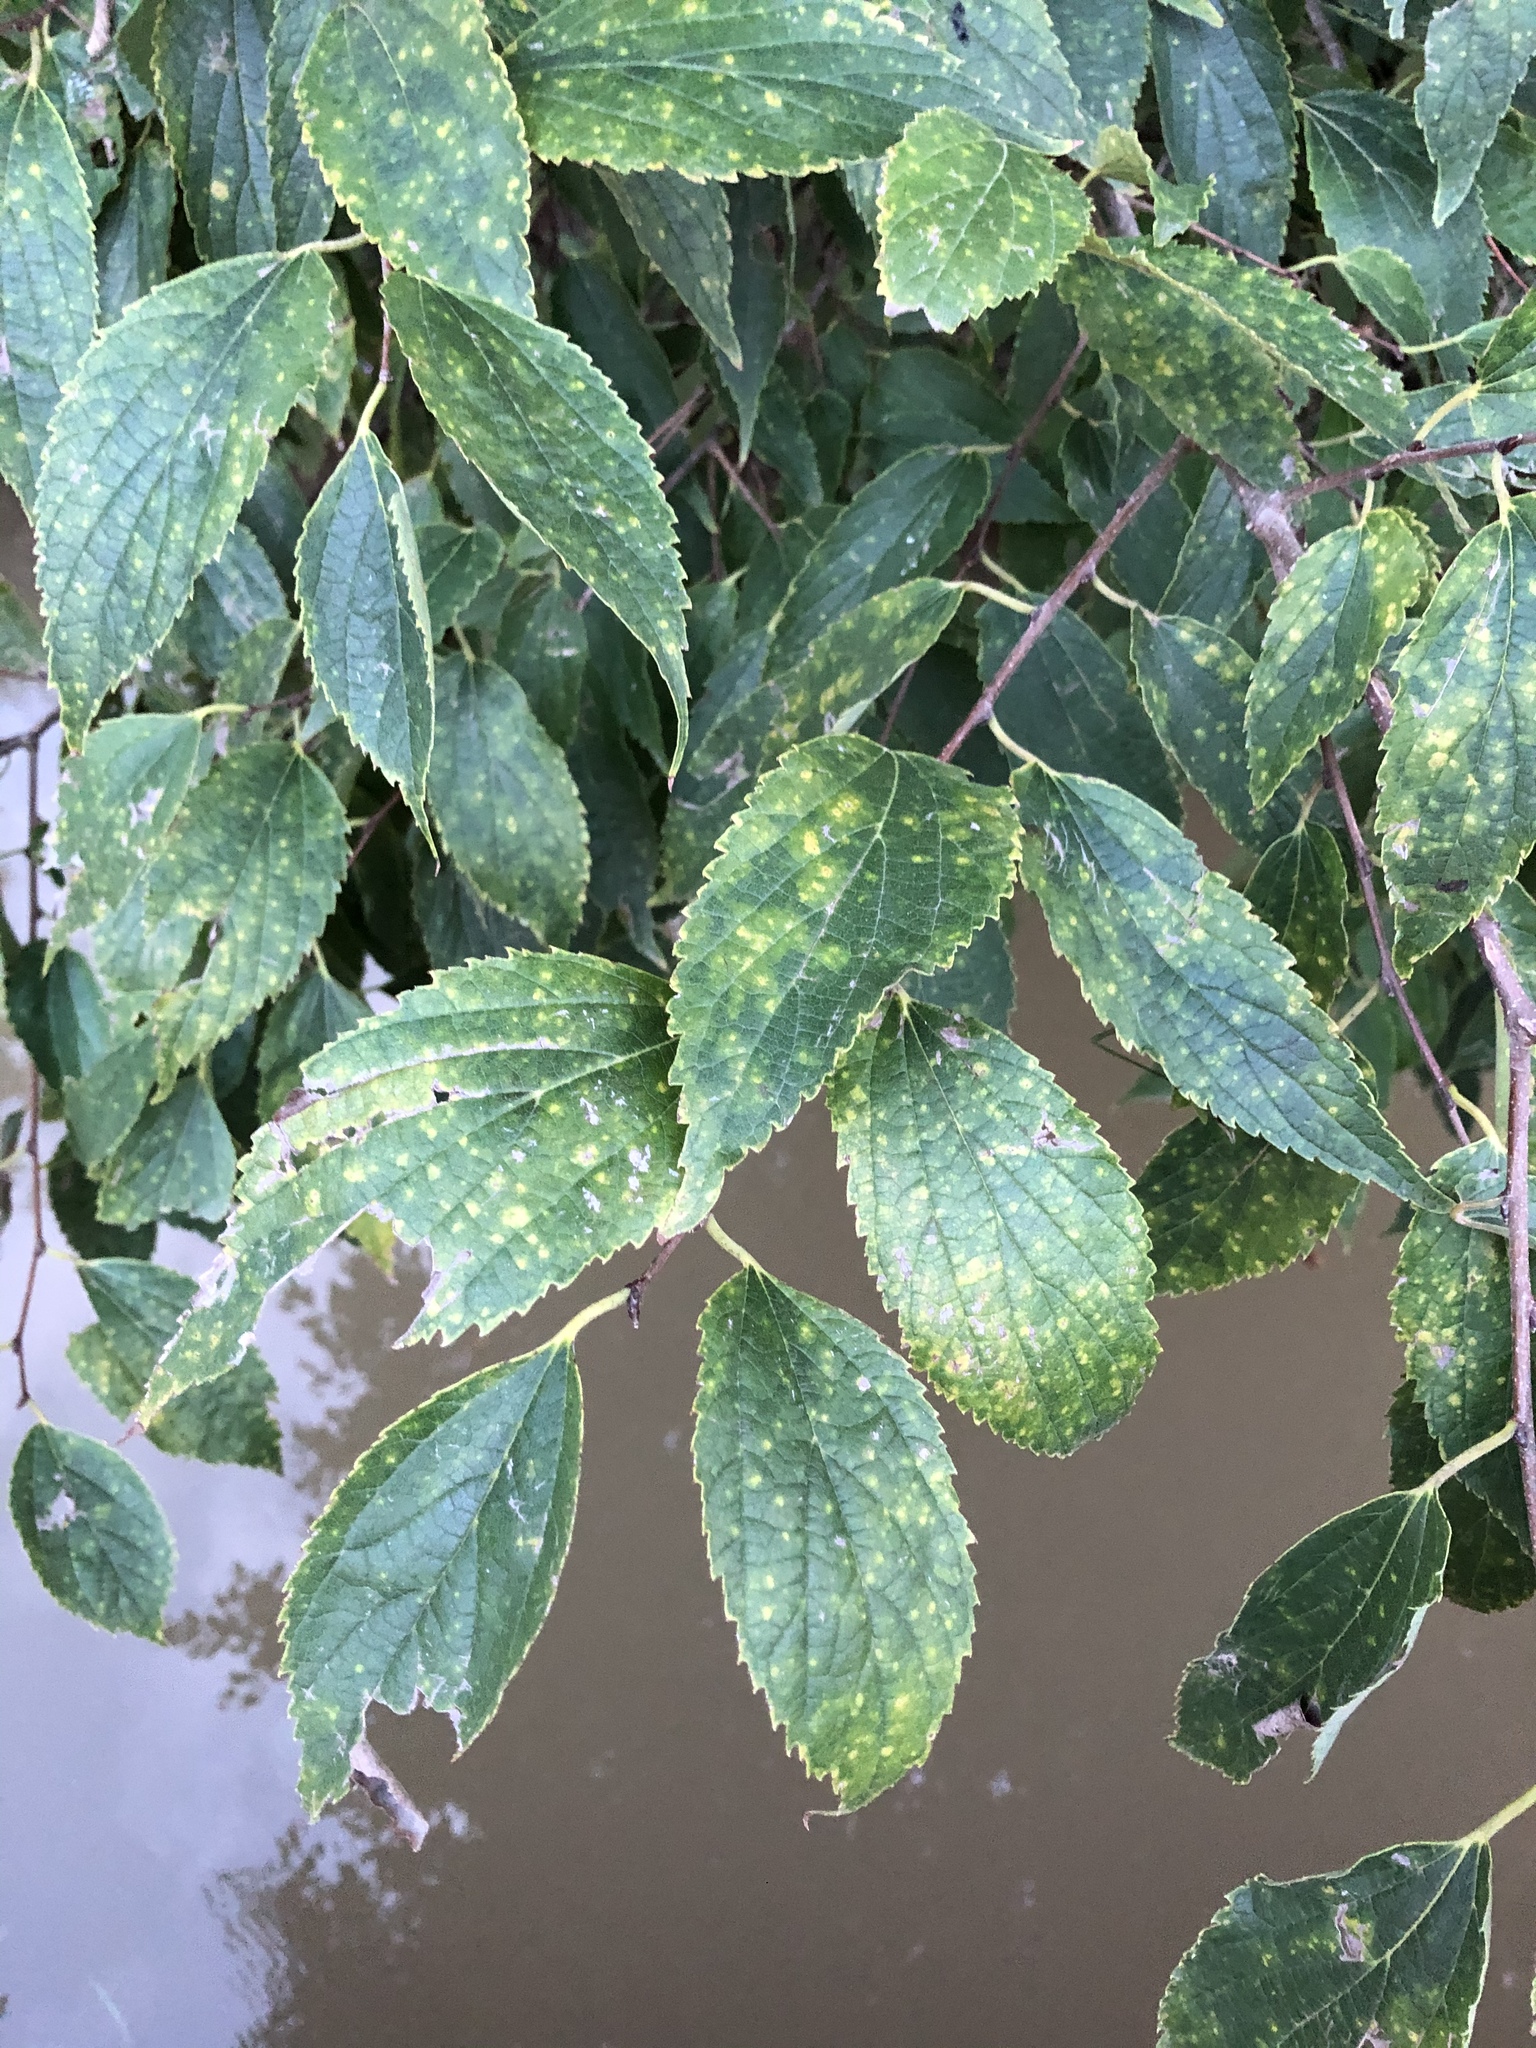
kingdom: Plantae
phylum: Tracheophyta
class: Magnoliopsida
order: Rosales
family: Cannabaceae
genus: Celtis
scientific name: Celtis australis
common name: European hackberry
